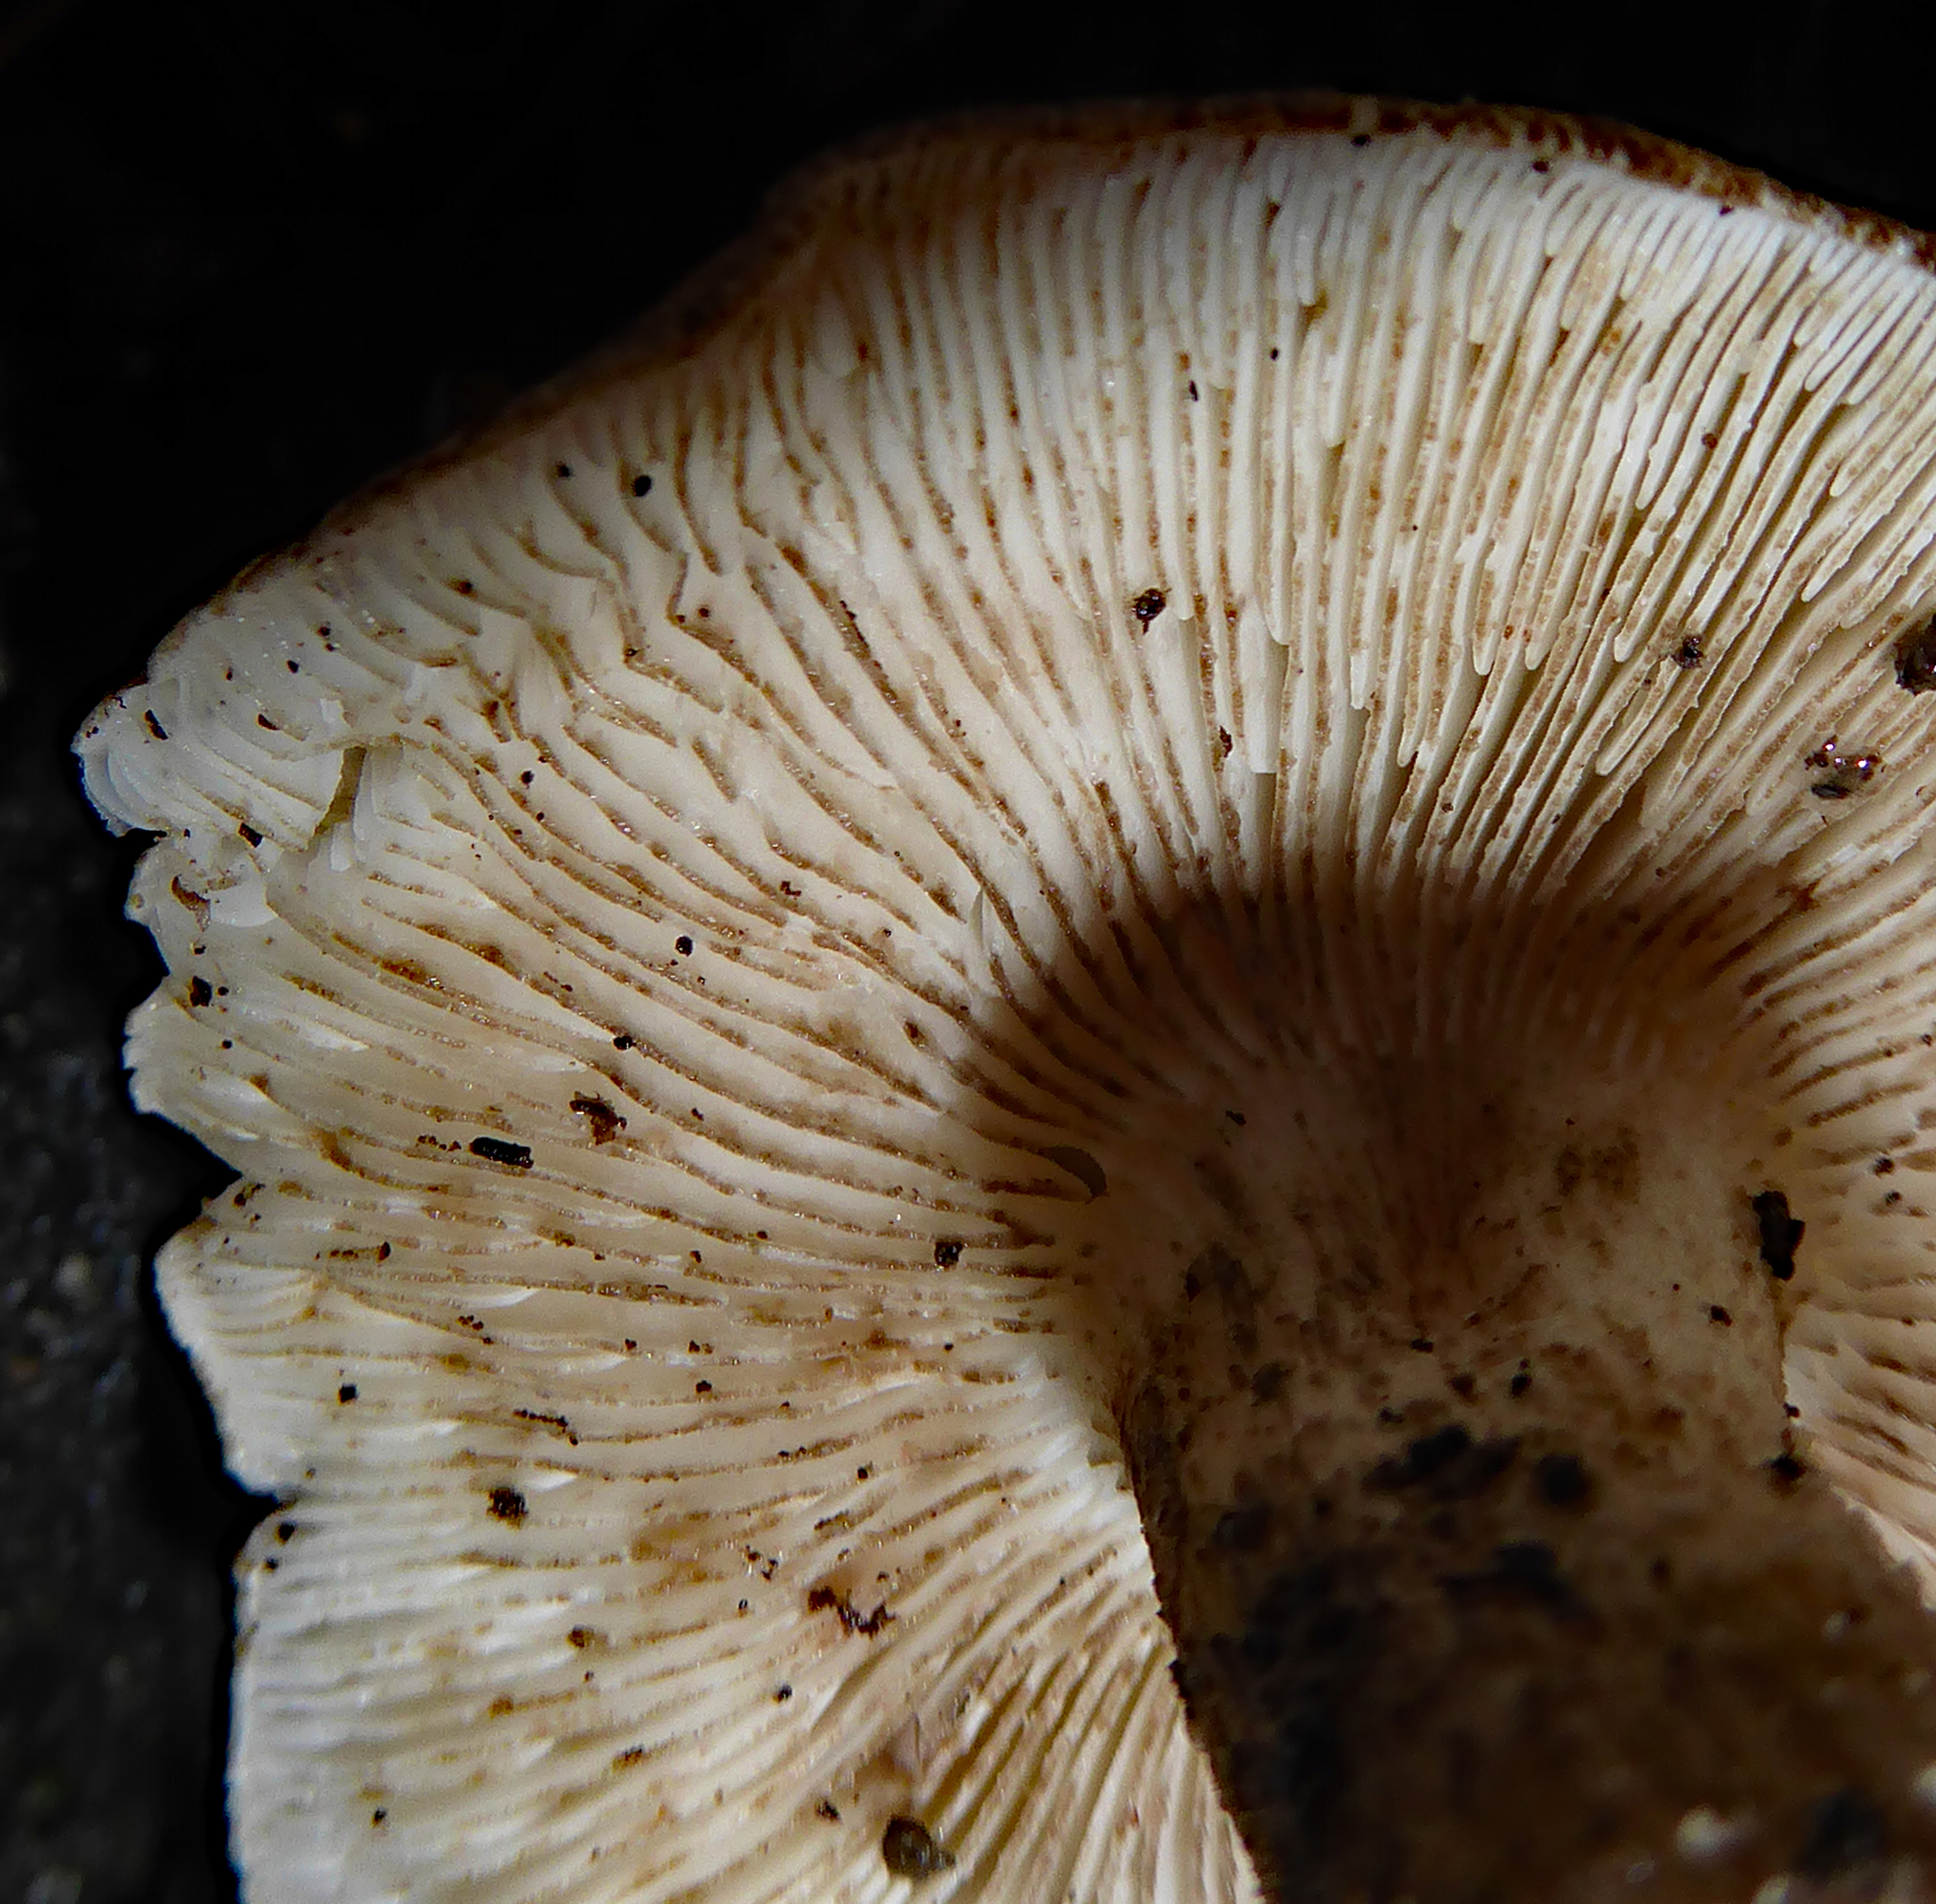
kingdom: Fungi
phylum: Basidiomycota
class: Agaricomycetes
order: Agaricales
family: Tricholomataceae
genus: Corneriella
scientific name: Corneriella
